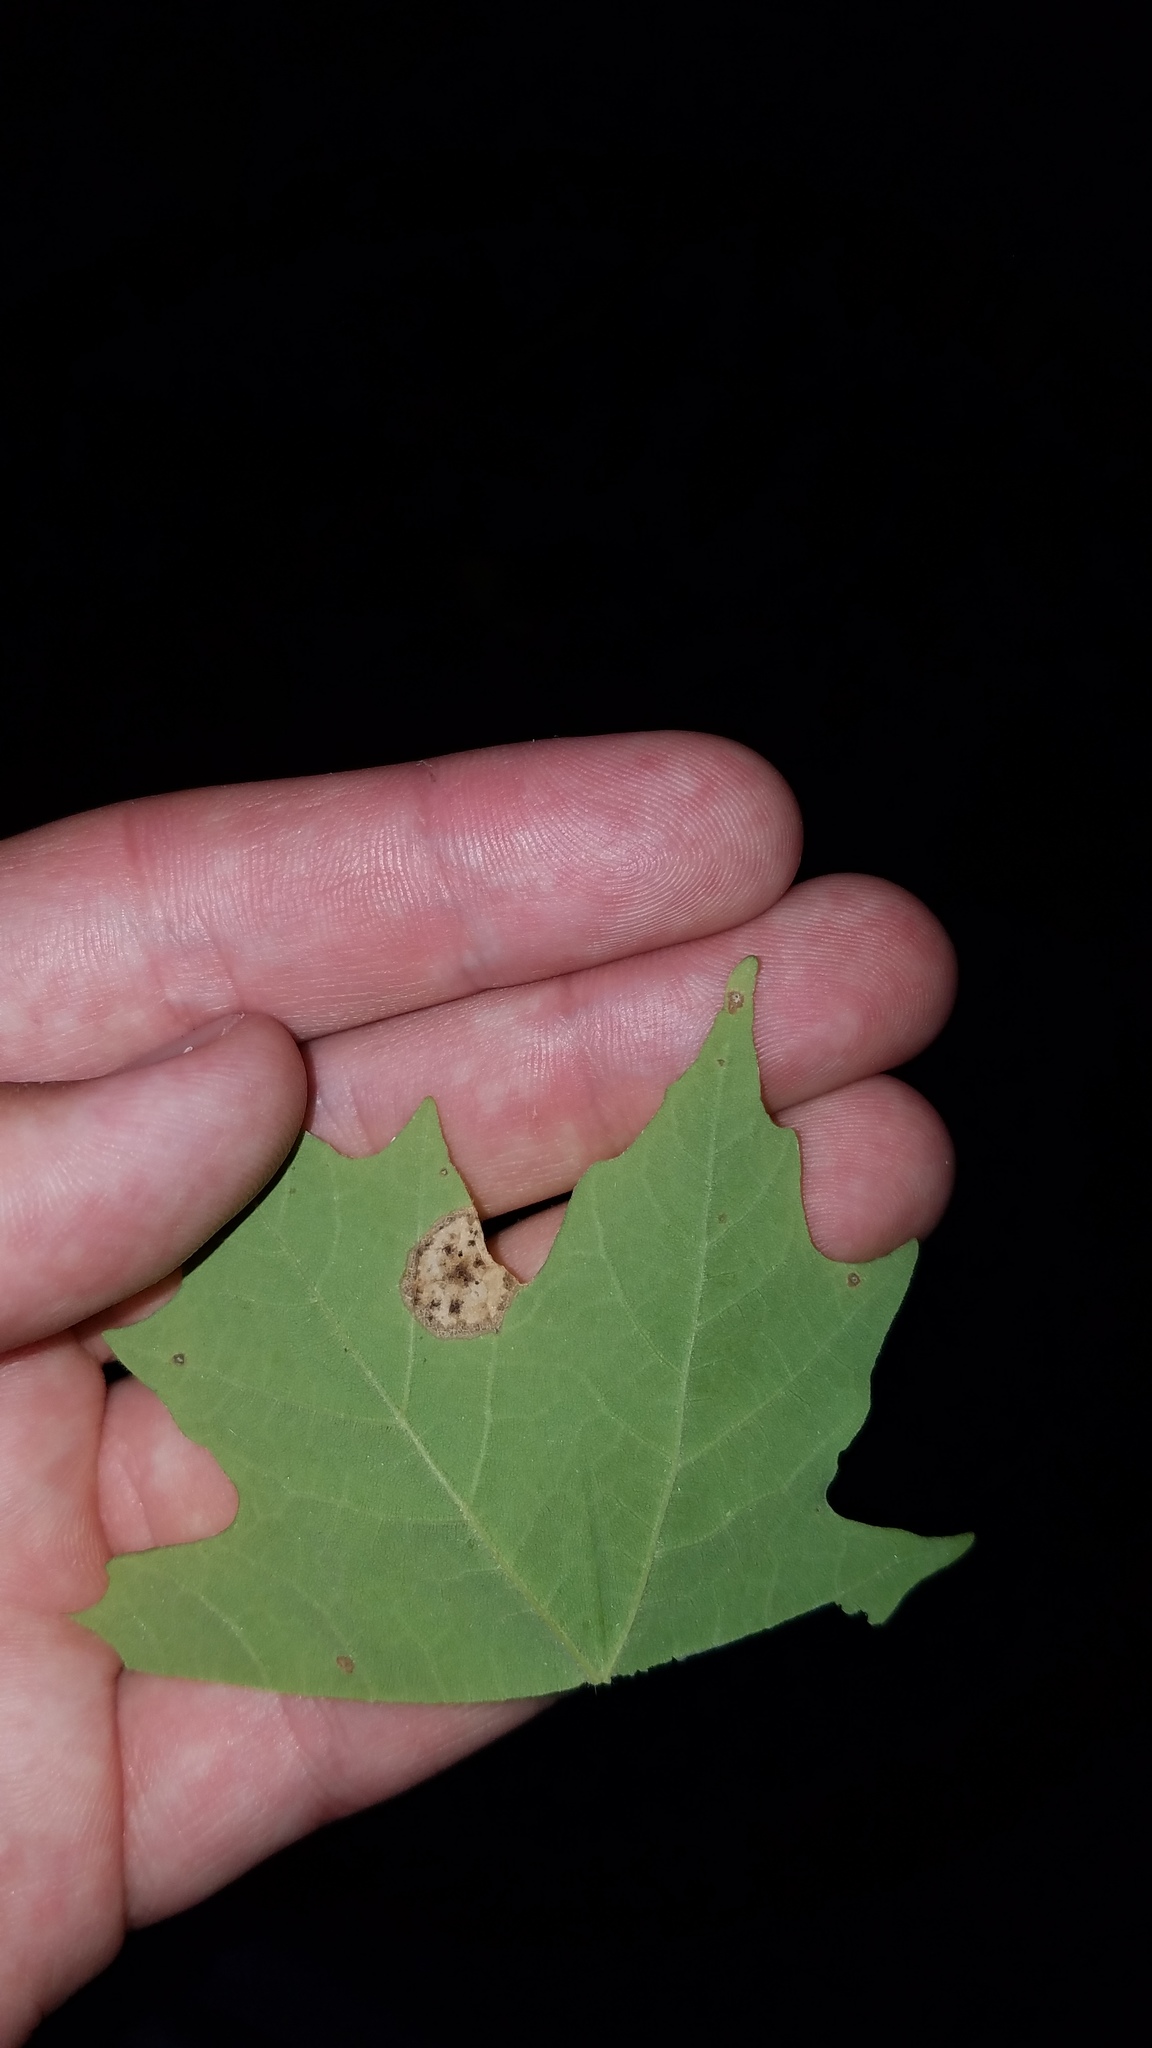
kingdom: Animalia
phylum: Arthropoda
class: Insecta
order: Diptera
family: Cecidomyiidae
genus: Acericecis
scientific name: Acericecis ocellaris
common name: Ocellate gall midge
